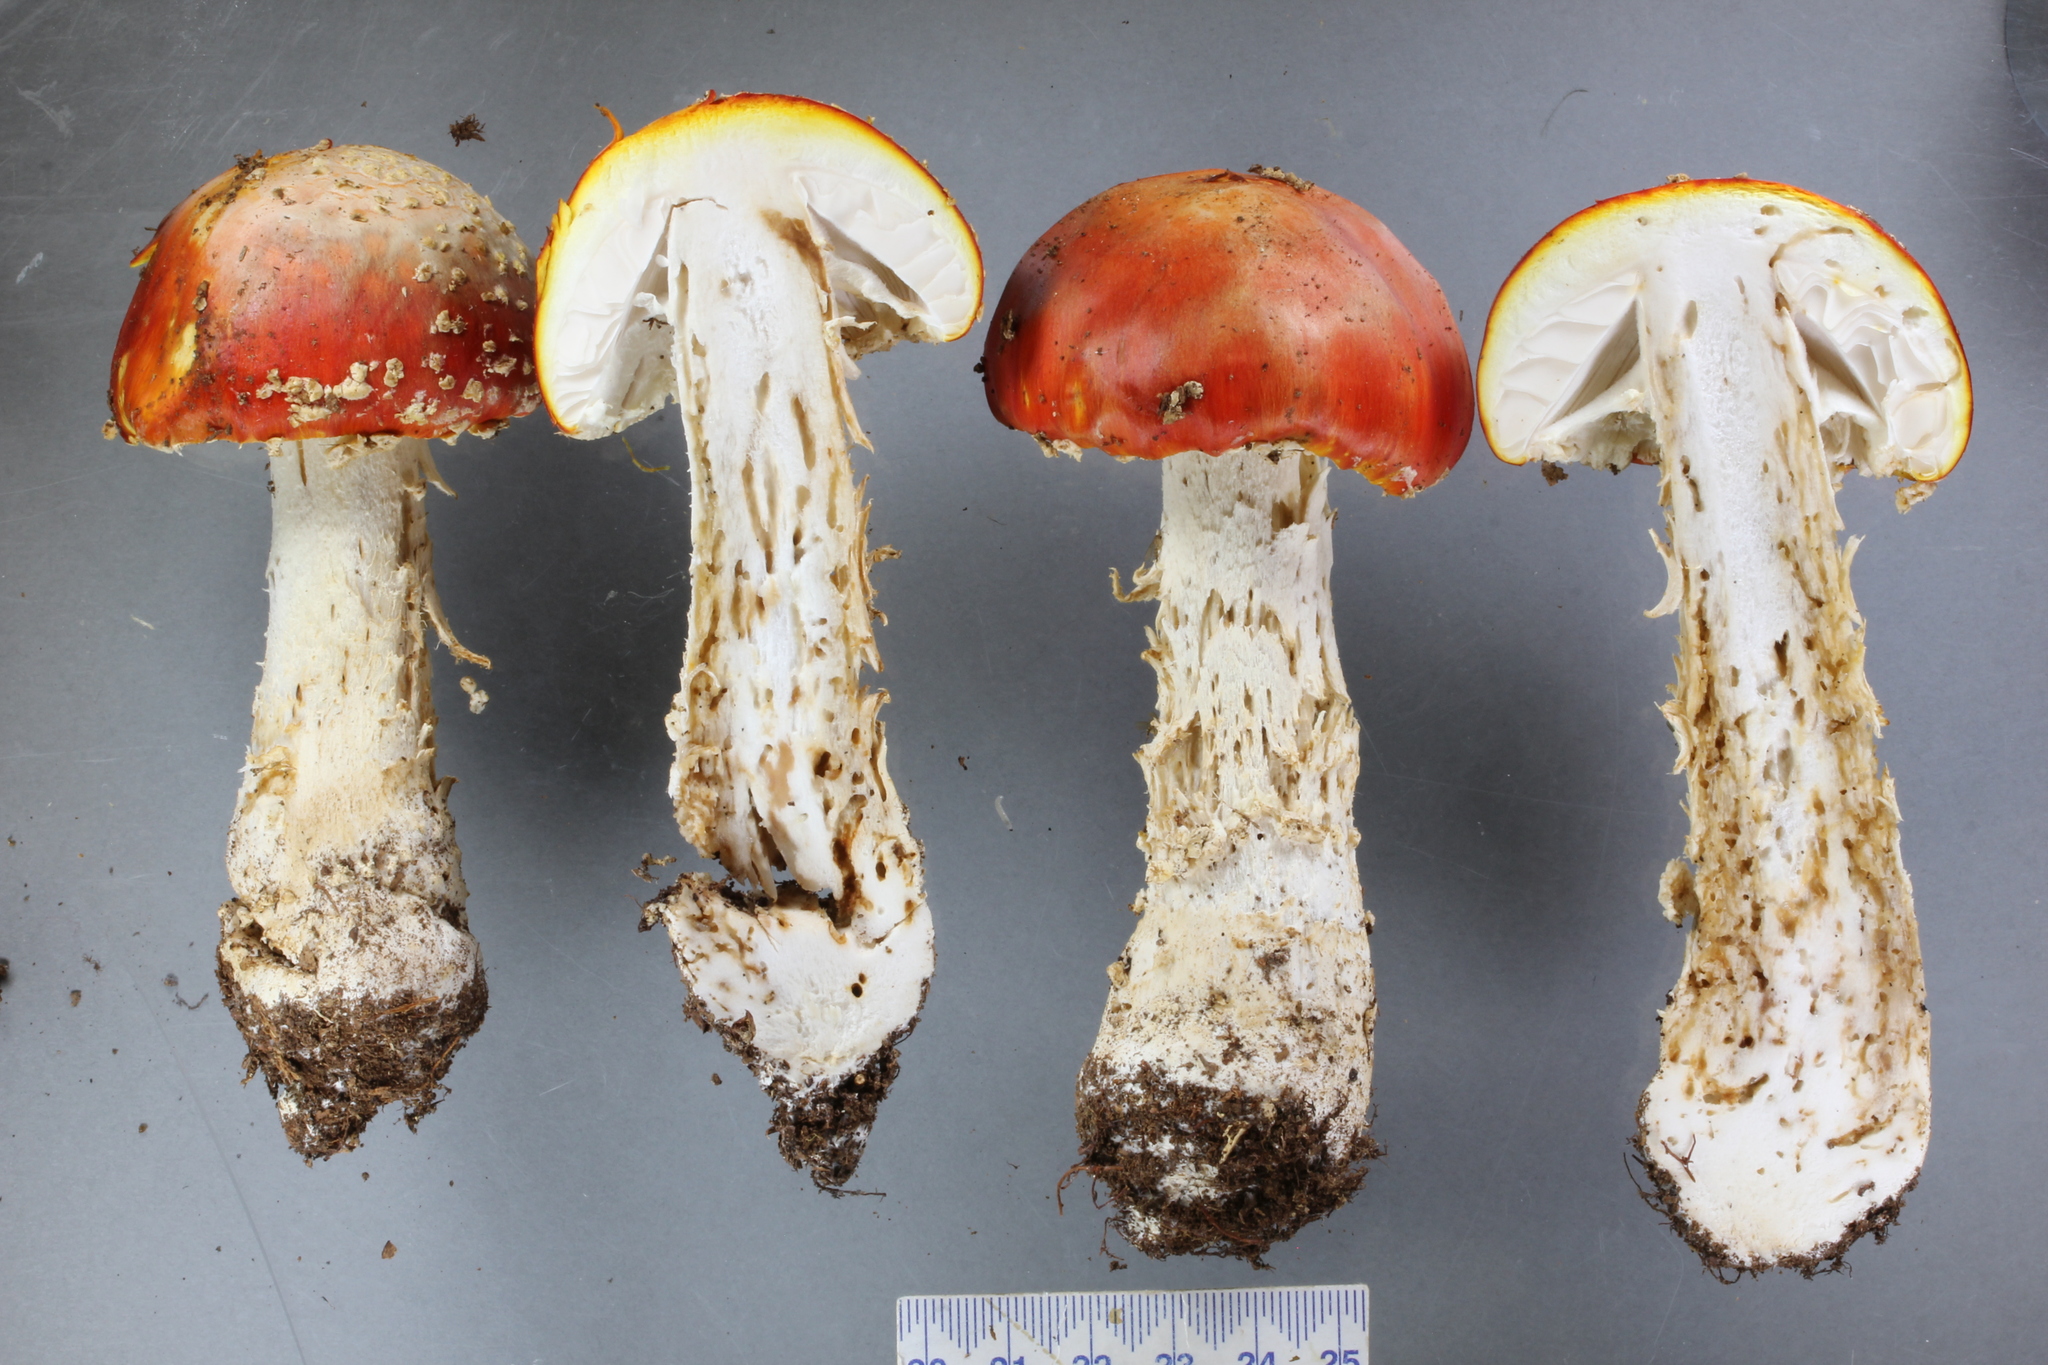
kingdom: Fungi
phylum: Basidiomycota
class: Agaricomycetes
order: Agaricales
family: Amanitaceae
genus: Amanita
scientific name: Amanita muscaria
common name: Fly agaric
